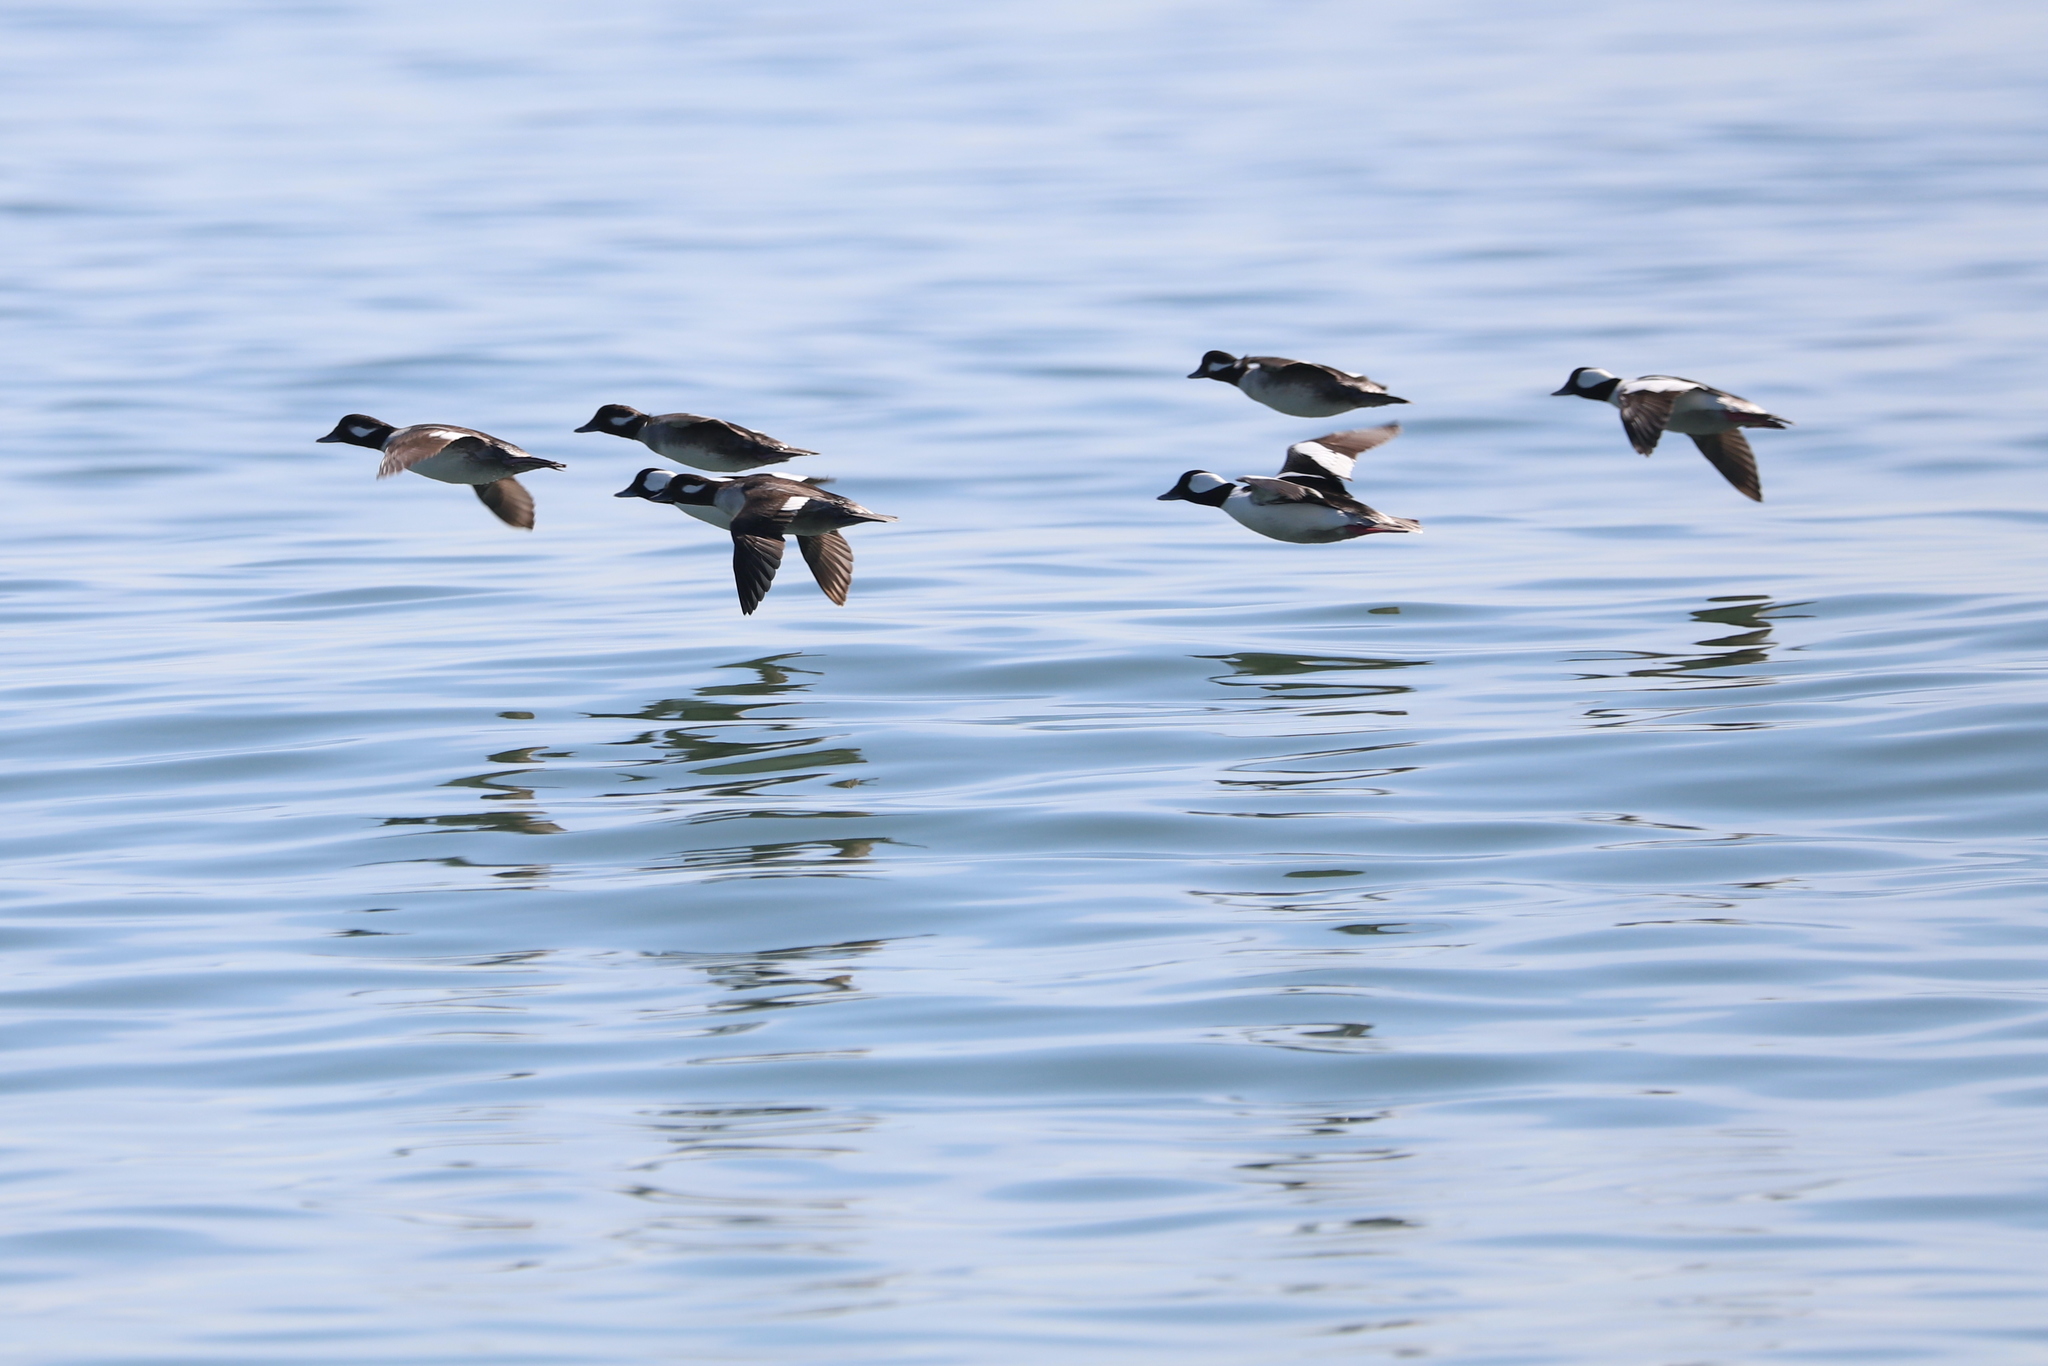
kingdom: Animalia
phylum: Chordata
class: Aves
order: Anseriformes
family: Anatidae
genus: Branta
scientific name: Branta bernicla
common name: Brant goose
